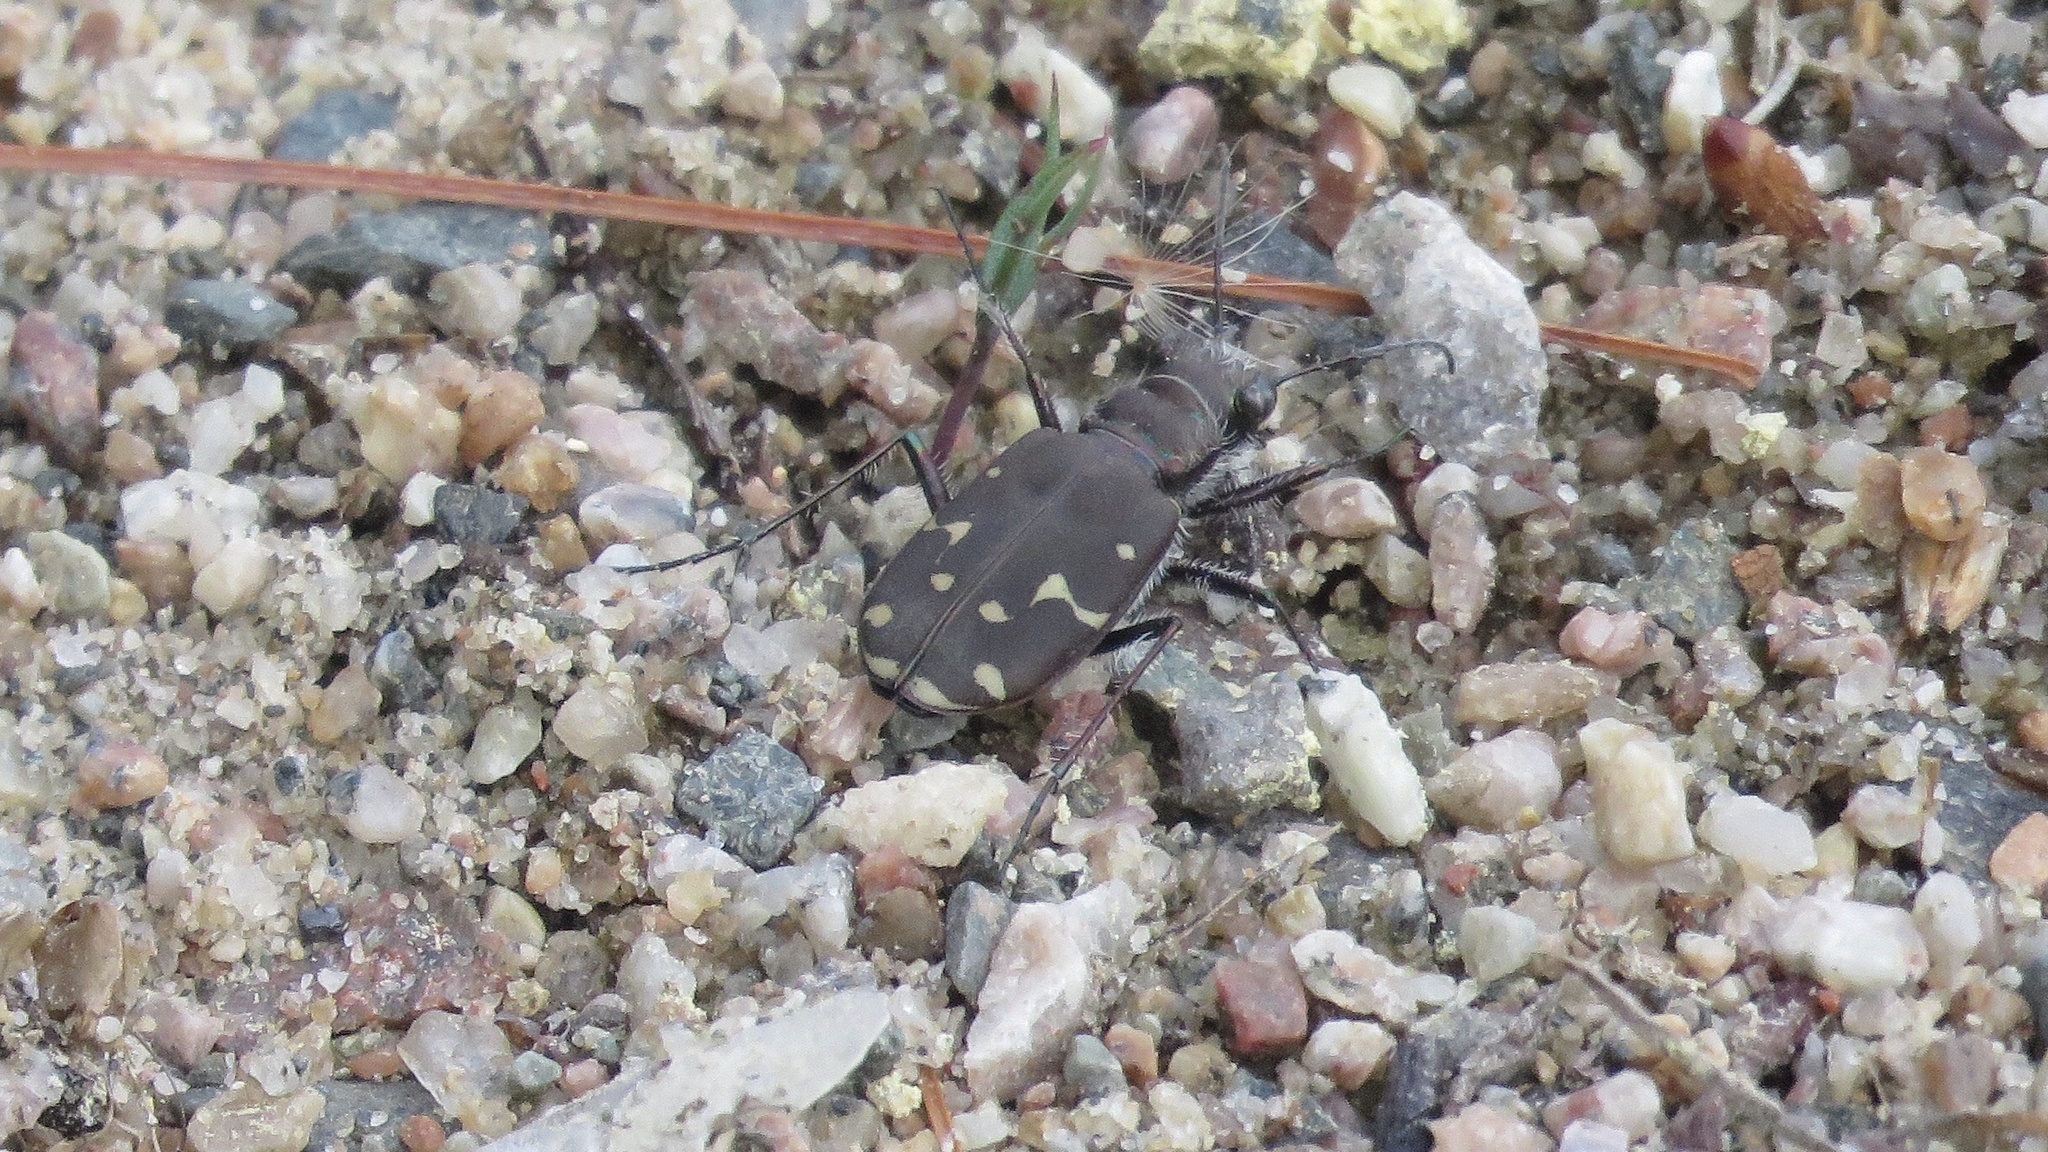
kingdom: Animalia
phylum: Arthropoda
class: Insecta
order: Coleoptera
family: Carabidae
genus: Cicindela
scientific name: Cicindela duodecimguttata
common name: Twelve-spotted tiger beetle
